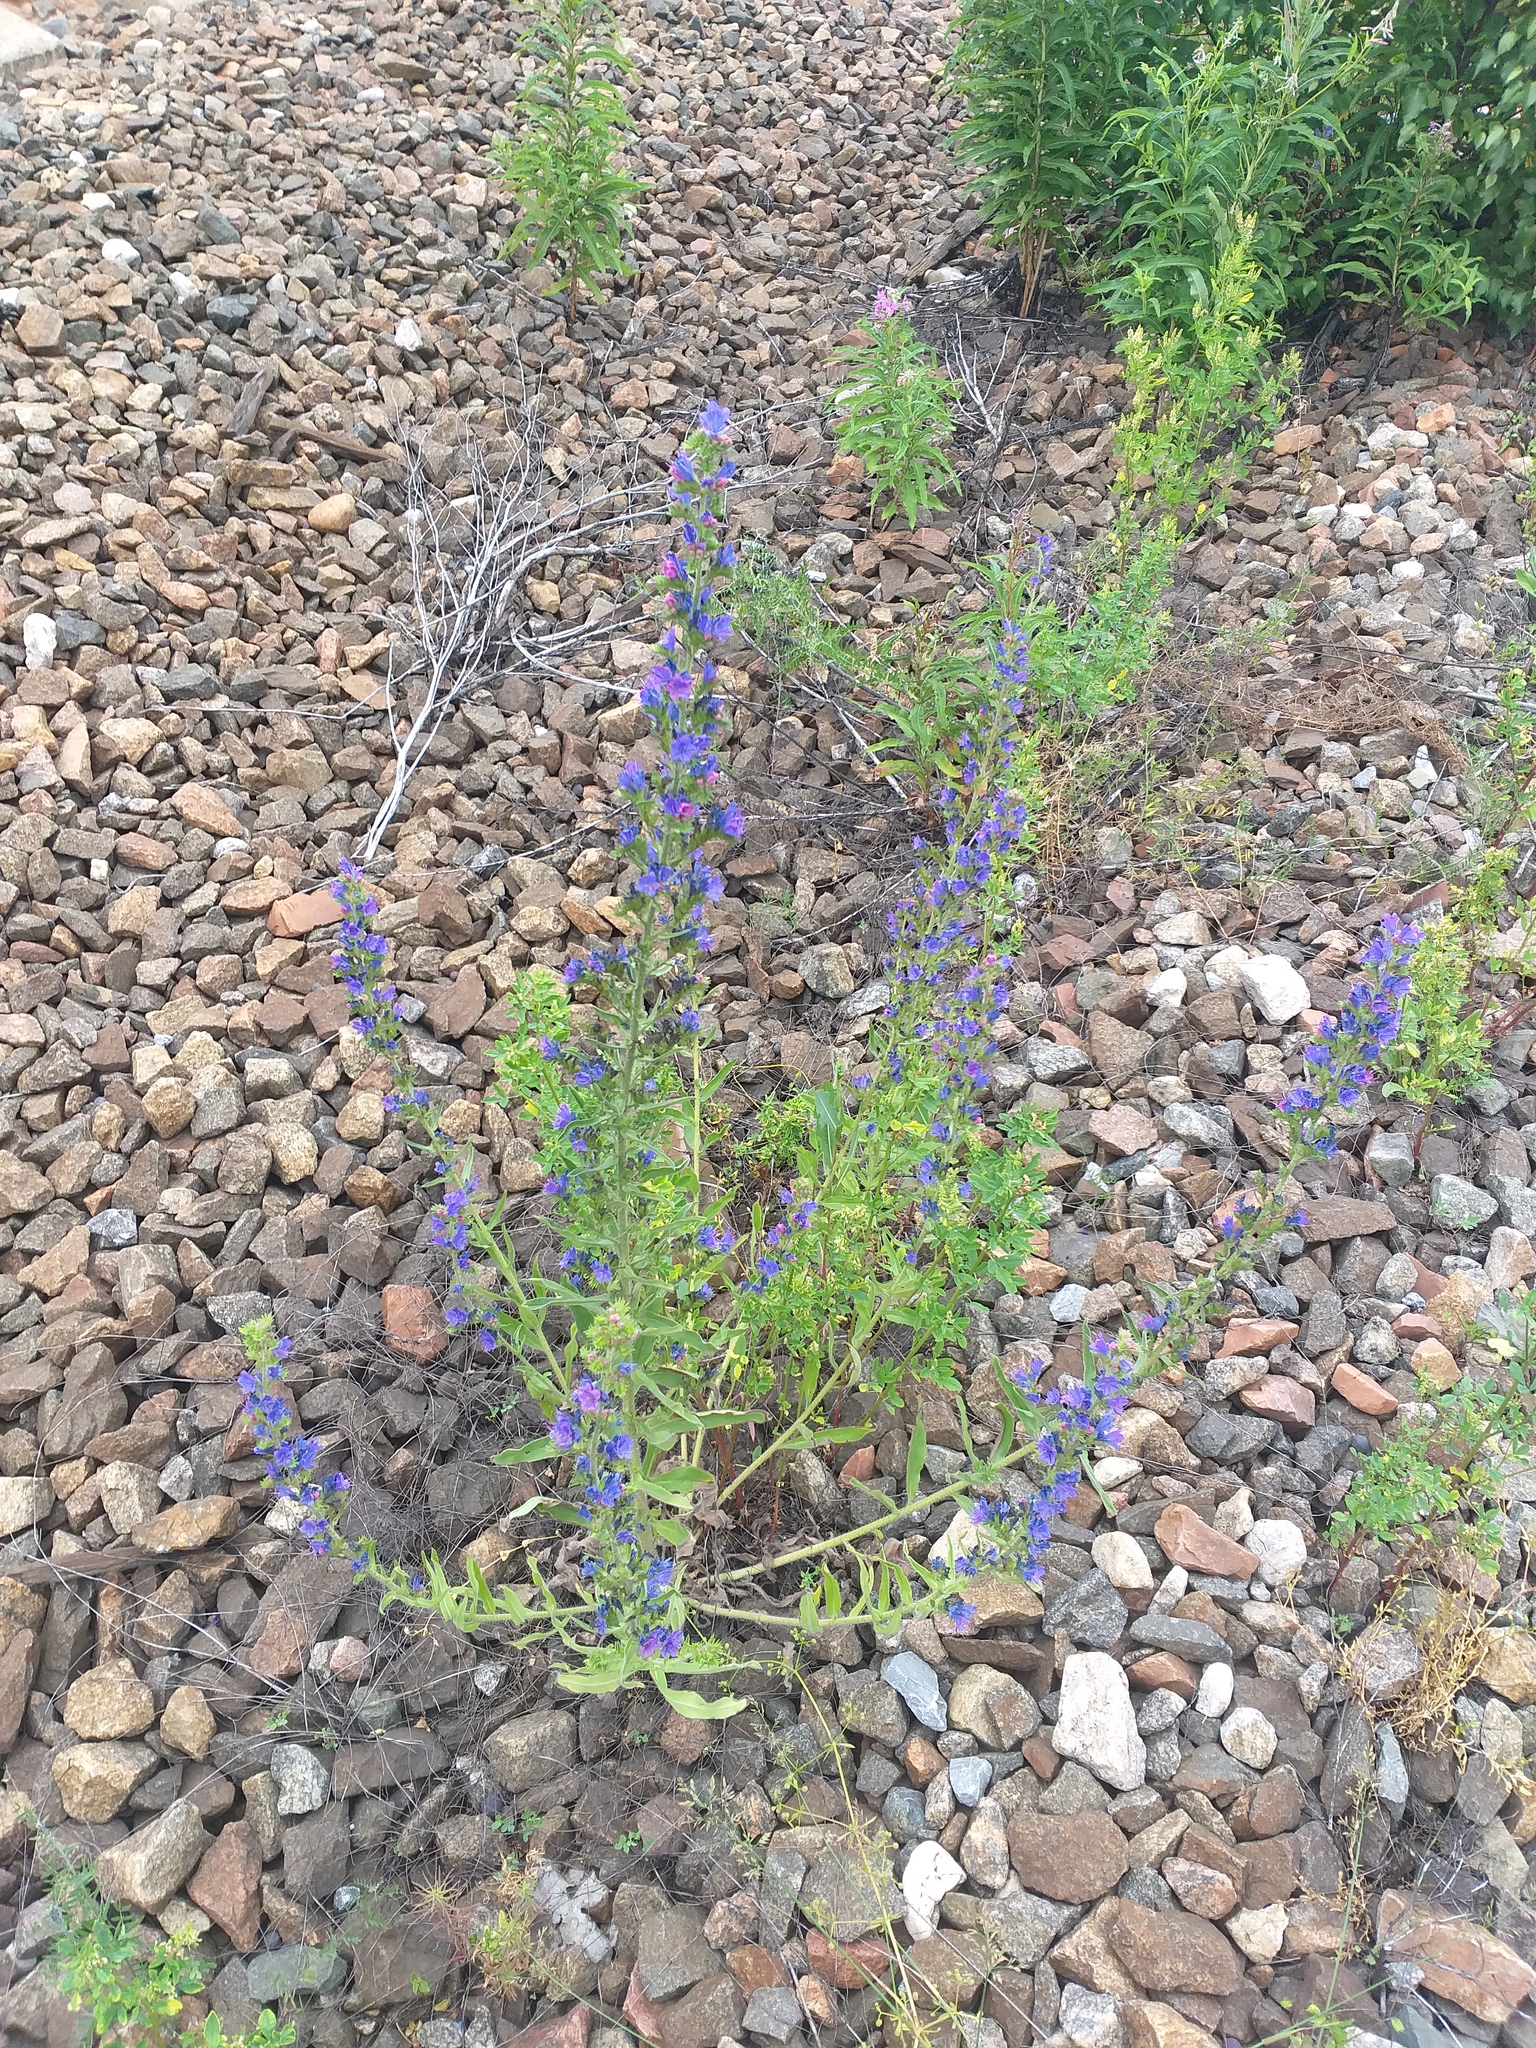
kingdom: Plantae
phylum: Tracheophyta
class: Magnoliopsida
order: Boraginales
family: Boraginaceae
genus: Echium
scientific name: Echium vulgare
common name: Common viper's bugloss
